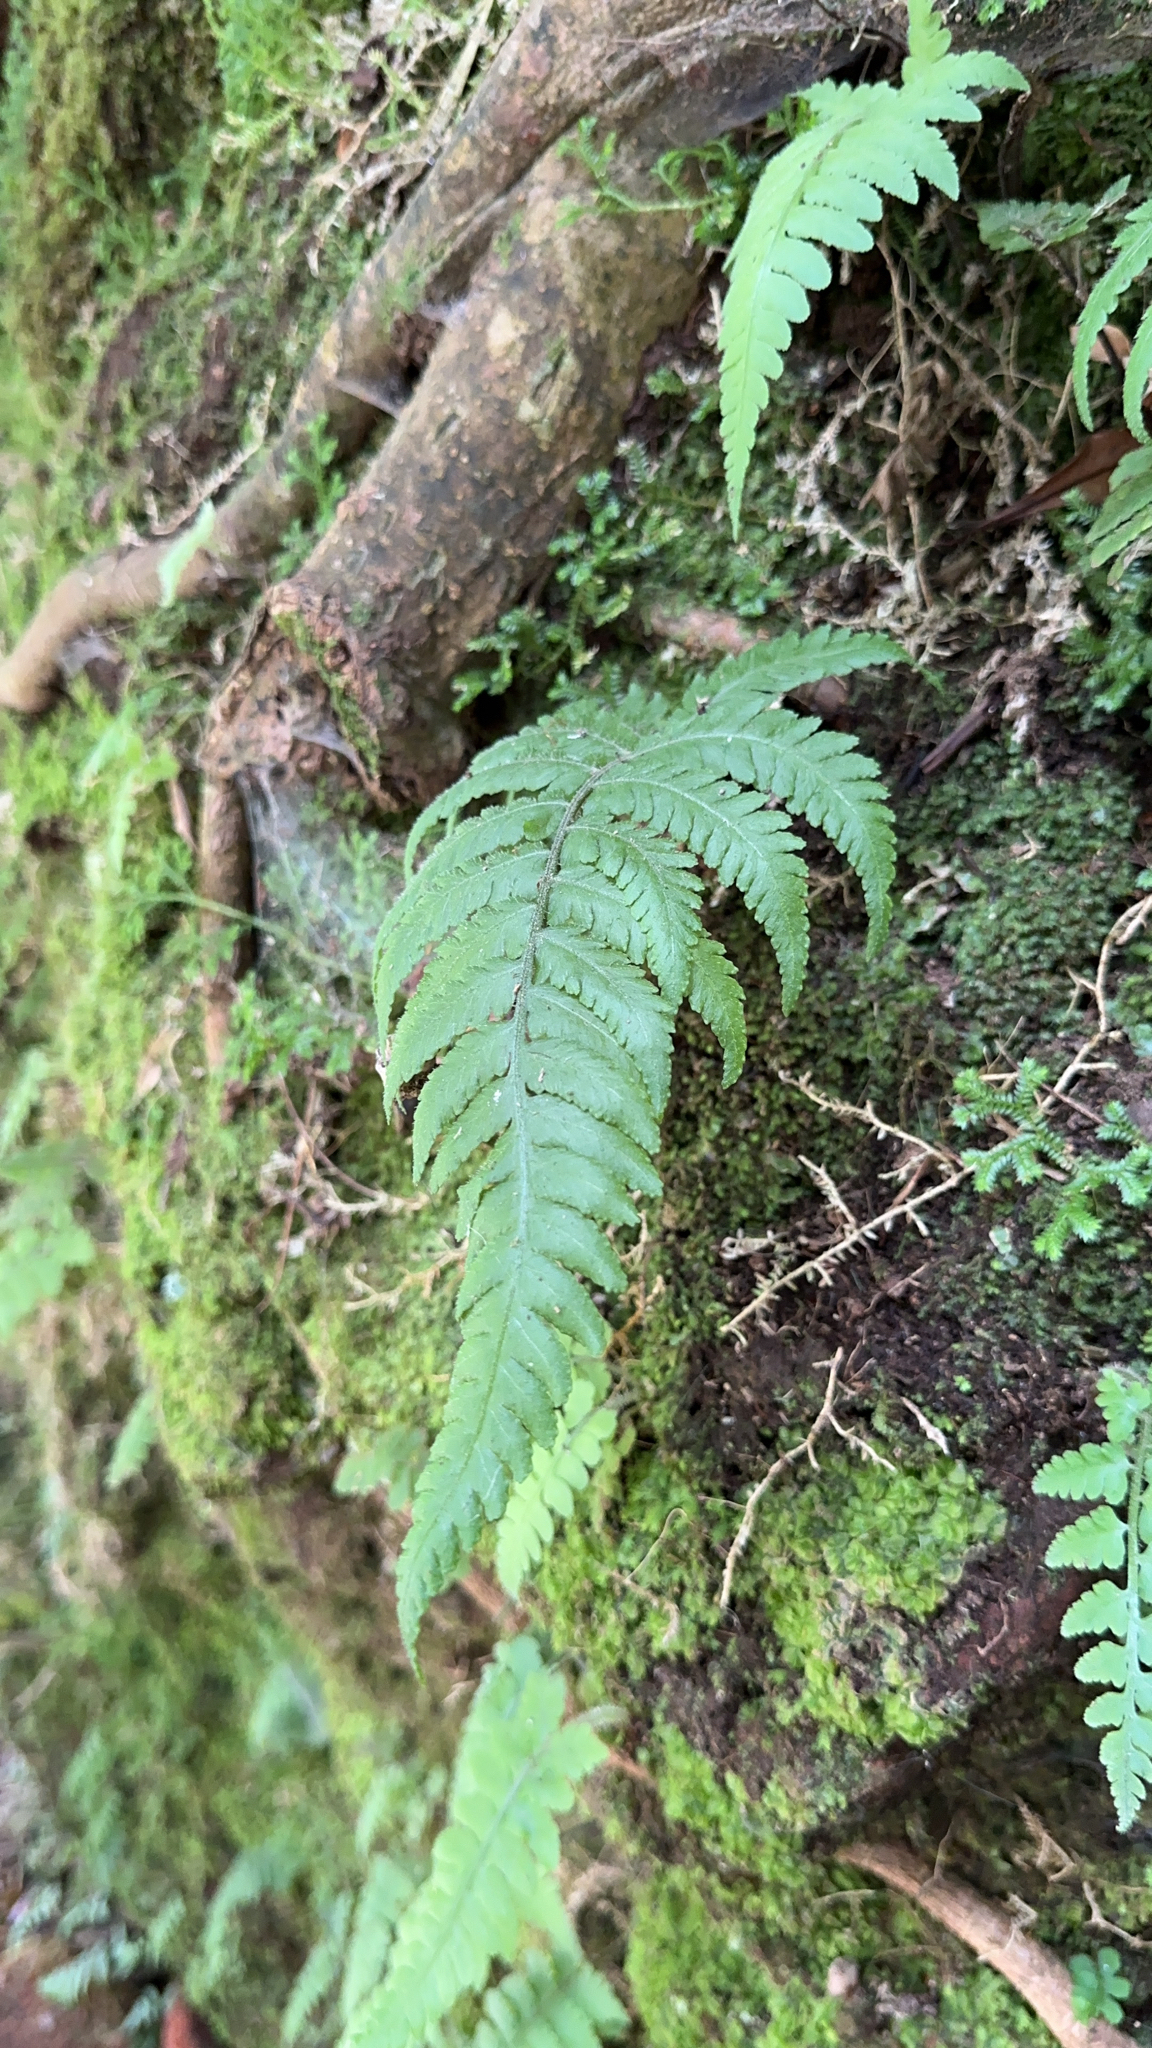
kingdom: Plantae
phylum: Tracheophyta
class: Polypodiopsida
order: Polypodiales
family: Athyriaceae
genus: Deparia
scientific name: Deparia petersenii
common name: Japanese false spleenwort
